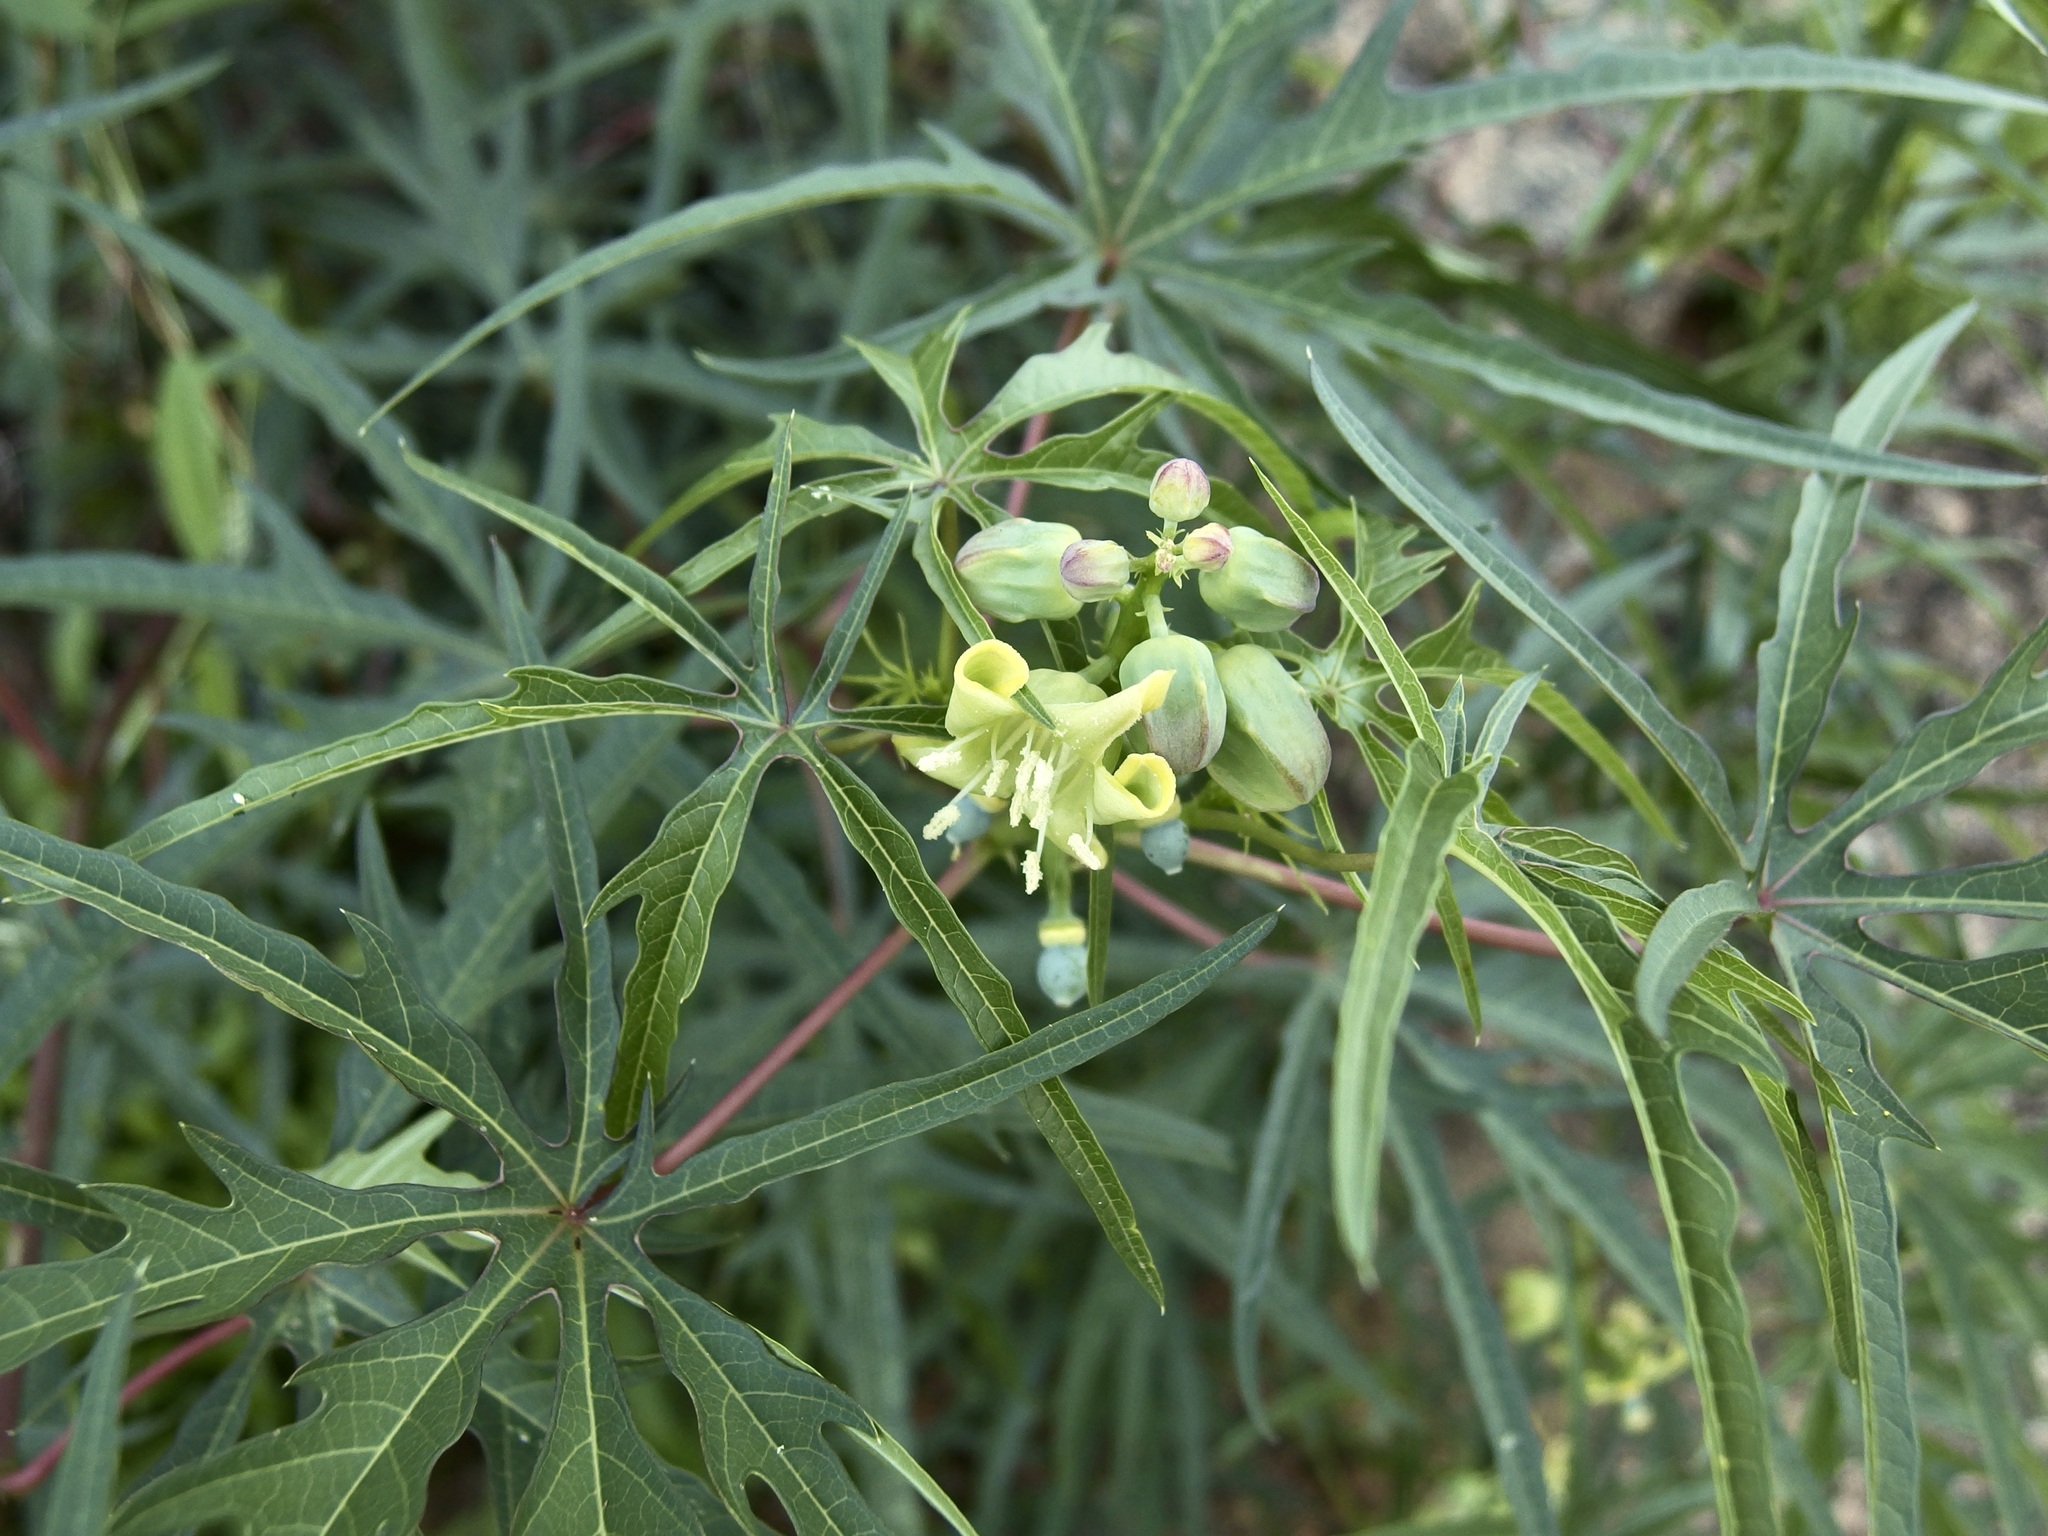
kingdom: Plantae
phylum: Tracheophyta
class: Magnoliopsida
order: Malpighiales
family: Euphorbiaceae
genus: Manihot
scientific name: Manihot angustiloba
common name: Desert mountain manihot
